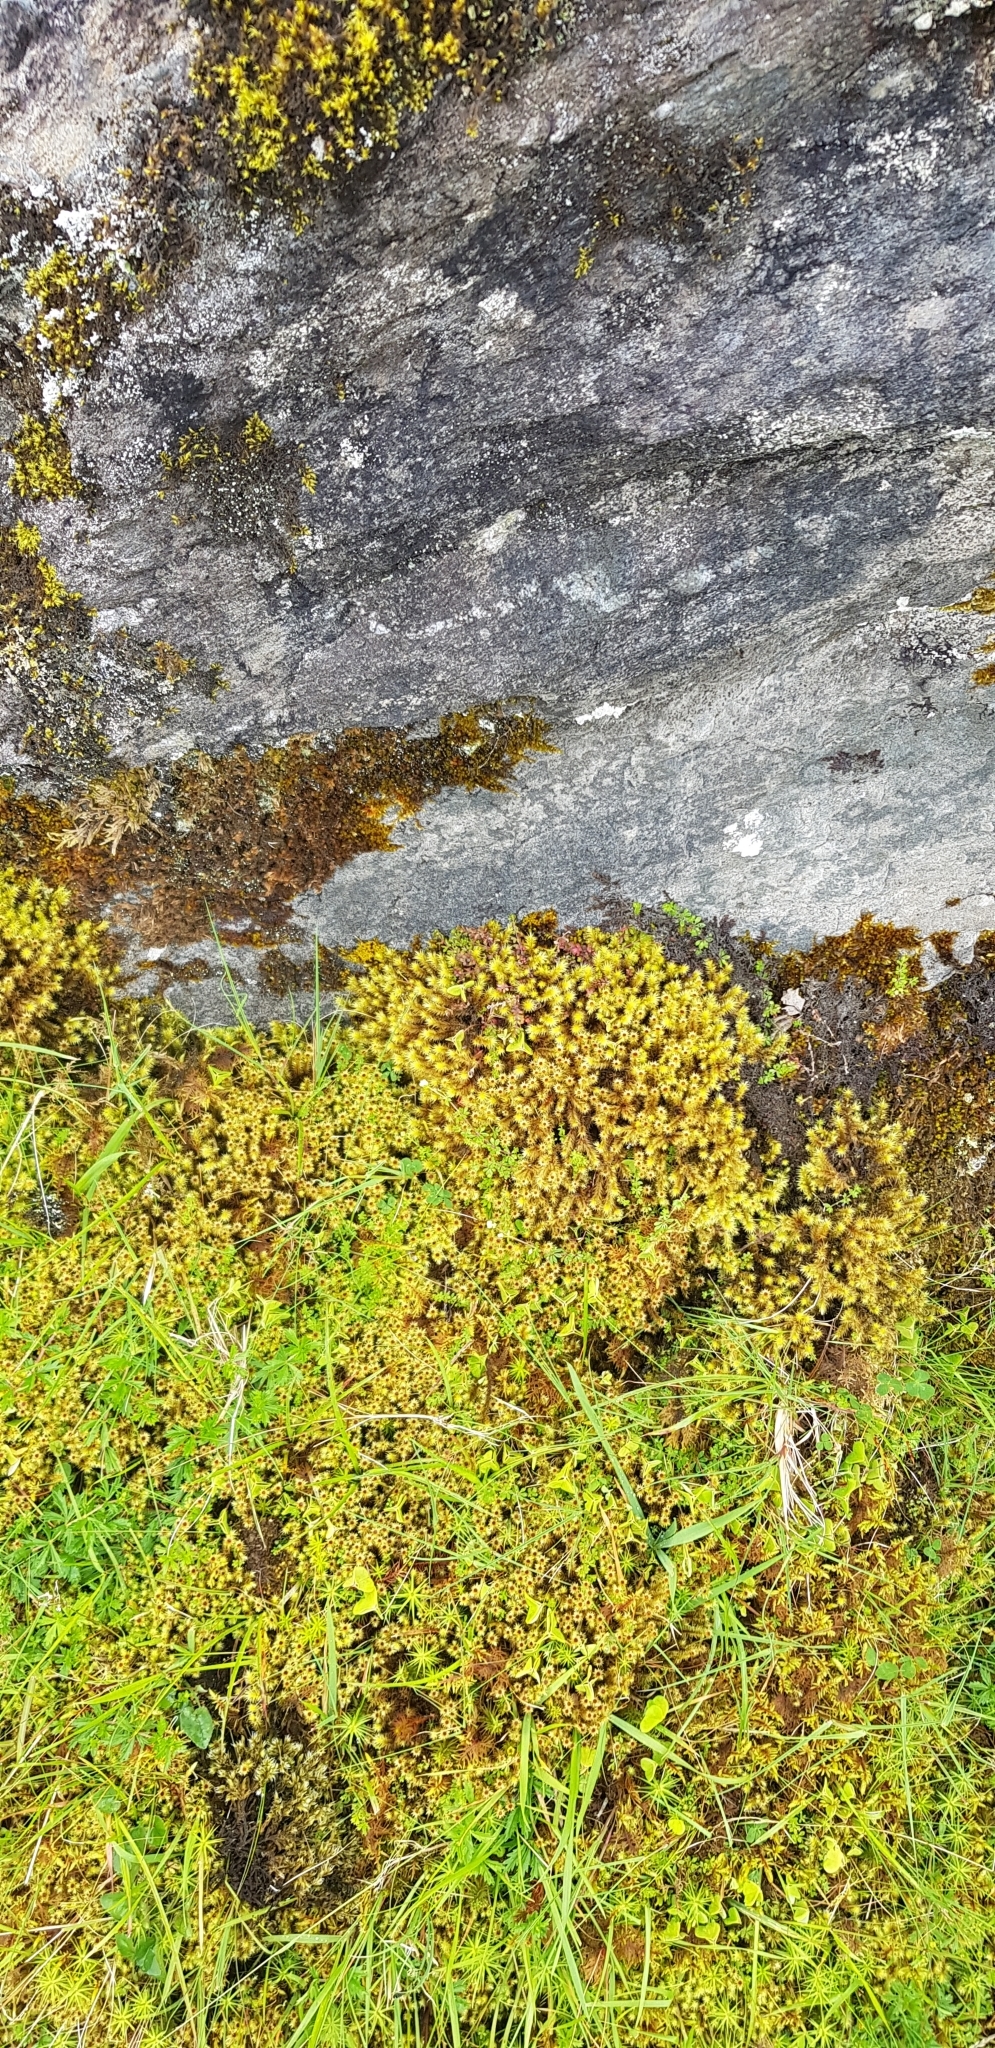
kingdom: Plantae
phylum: Bryophyta
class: Bryopsida
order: Bartramiales
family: Bartramiaceae
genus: Breutelia
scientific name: Breutelia chrysocoma
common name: Bottle-brush moss
